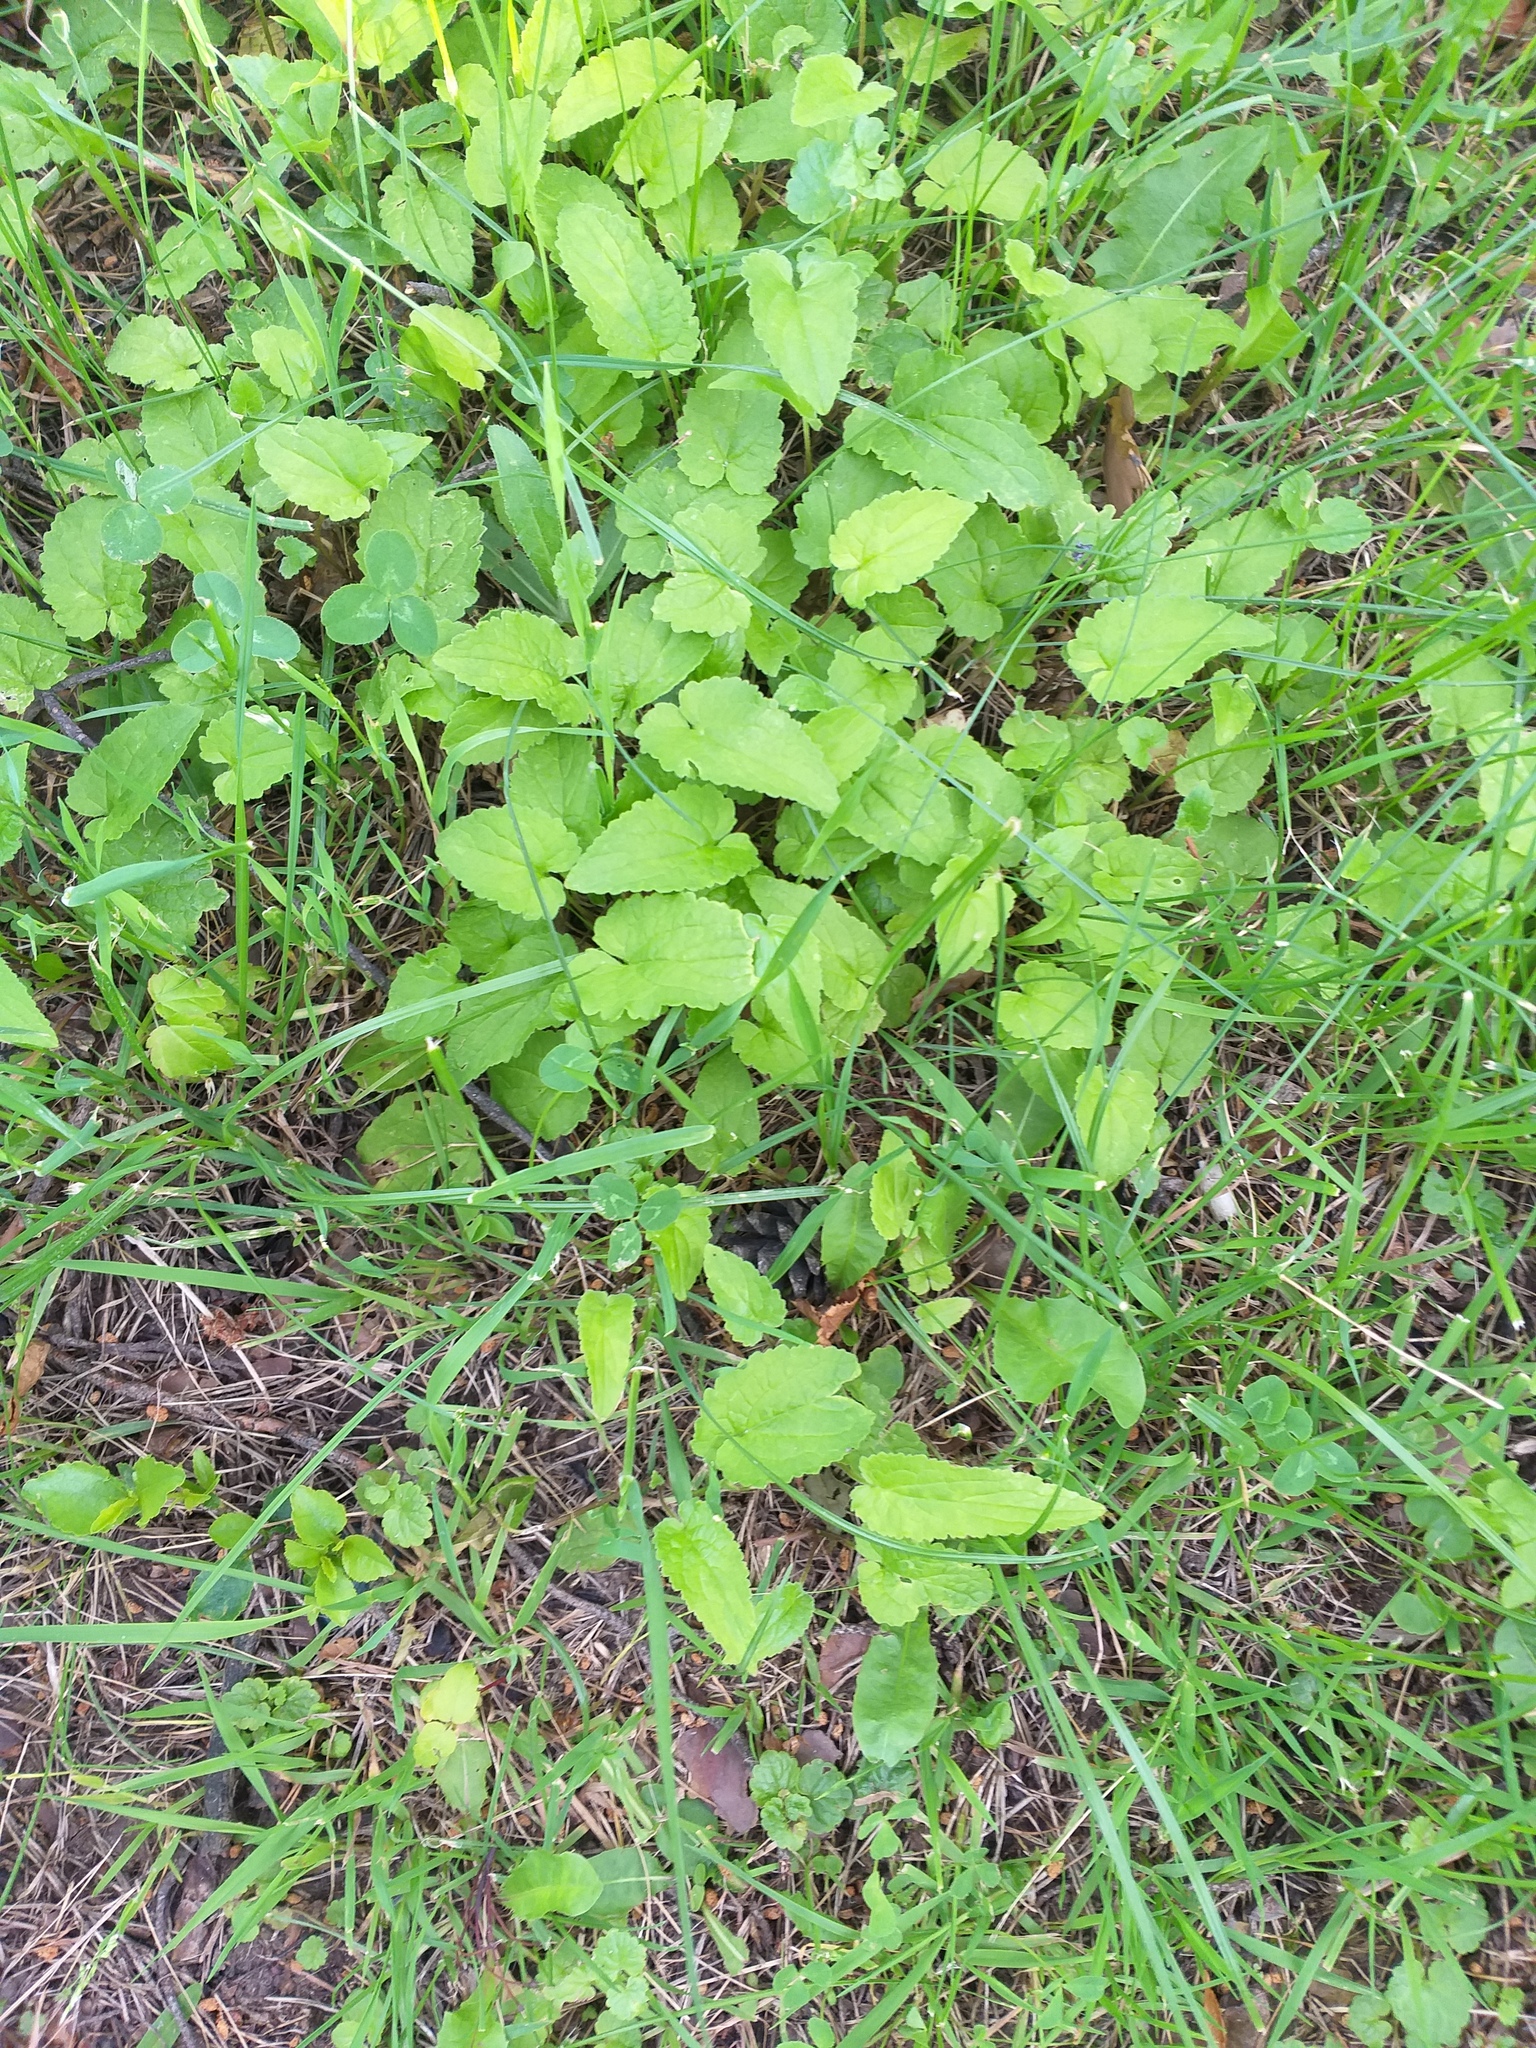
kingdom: Plantae
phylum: Tracheophyta
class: Magnoliopsida
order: Asterales
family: Campanulaceae
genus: Campanula
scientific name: Campanula rapunculoides
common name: Creeping bellflower
